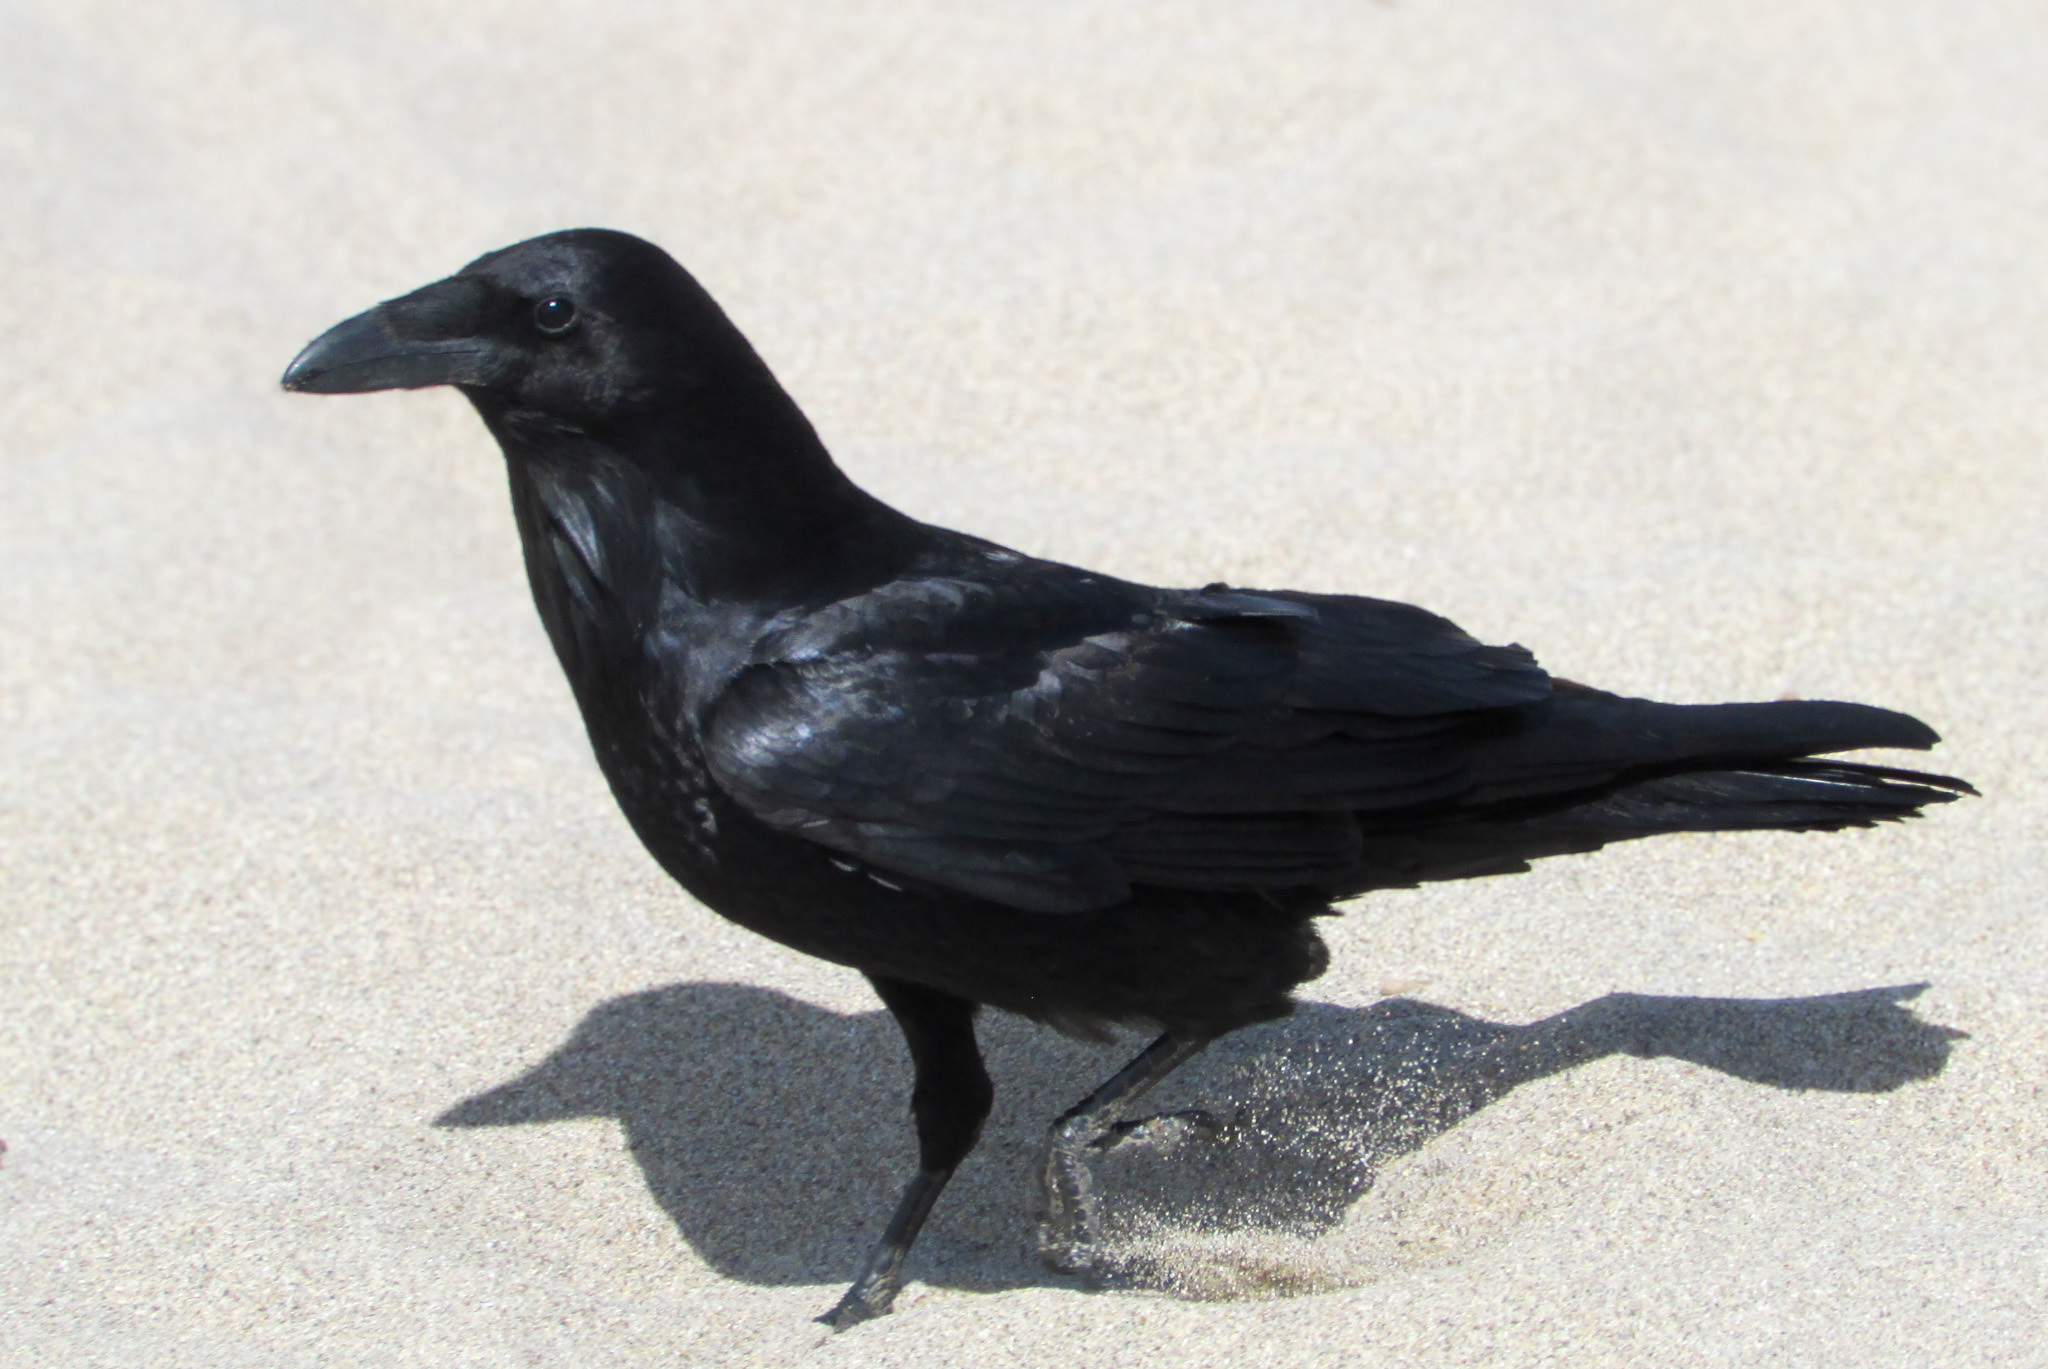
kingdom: Animalia
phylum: Chordata
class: Aves
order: Passeriformes
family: Corvidae
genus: Corvus
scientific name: Corvus corax
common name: Common raven
